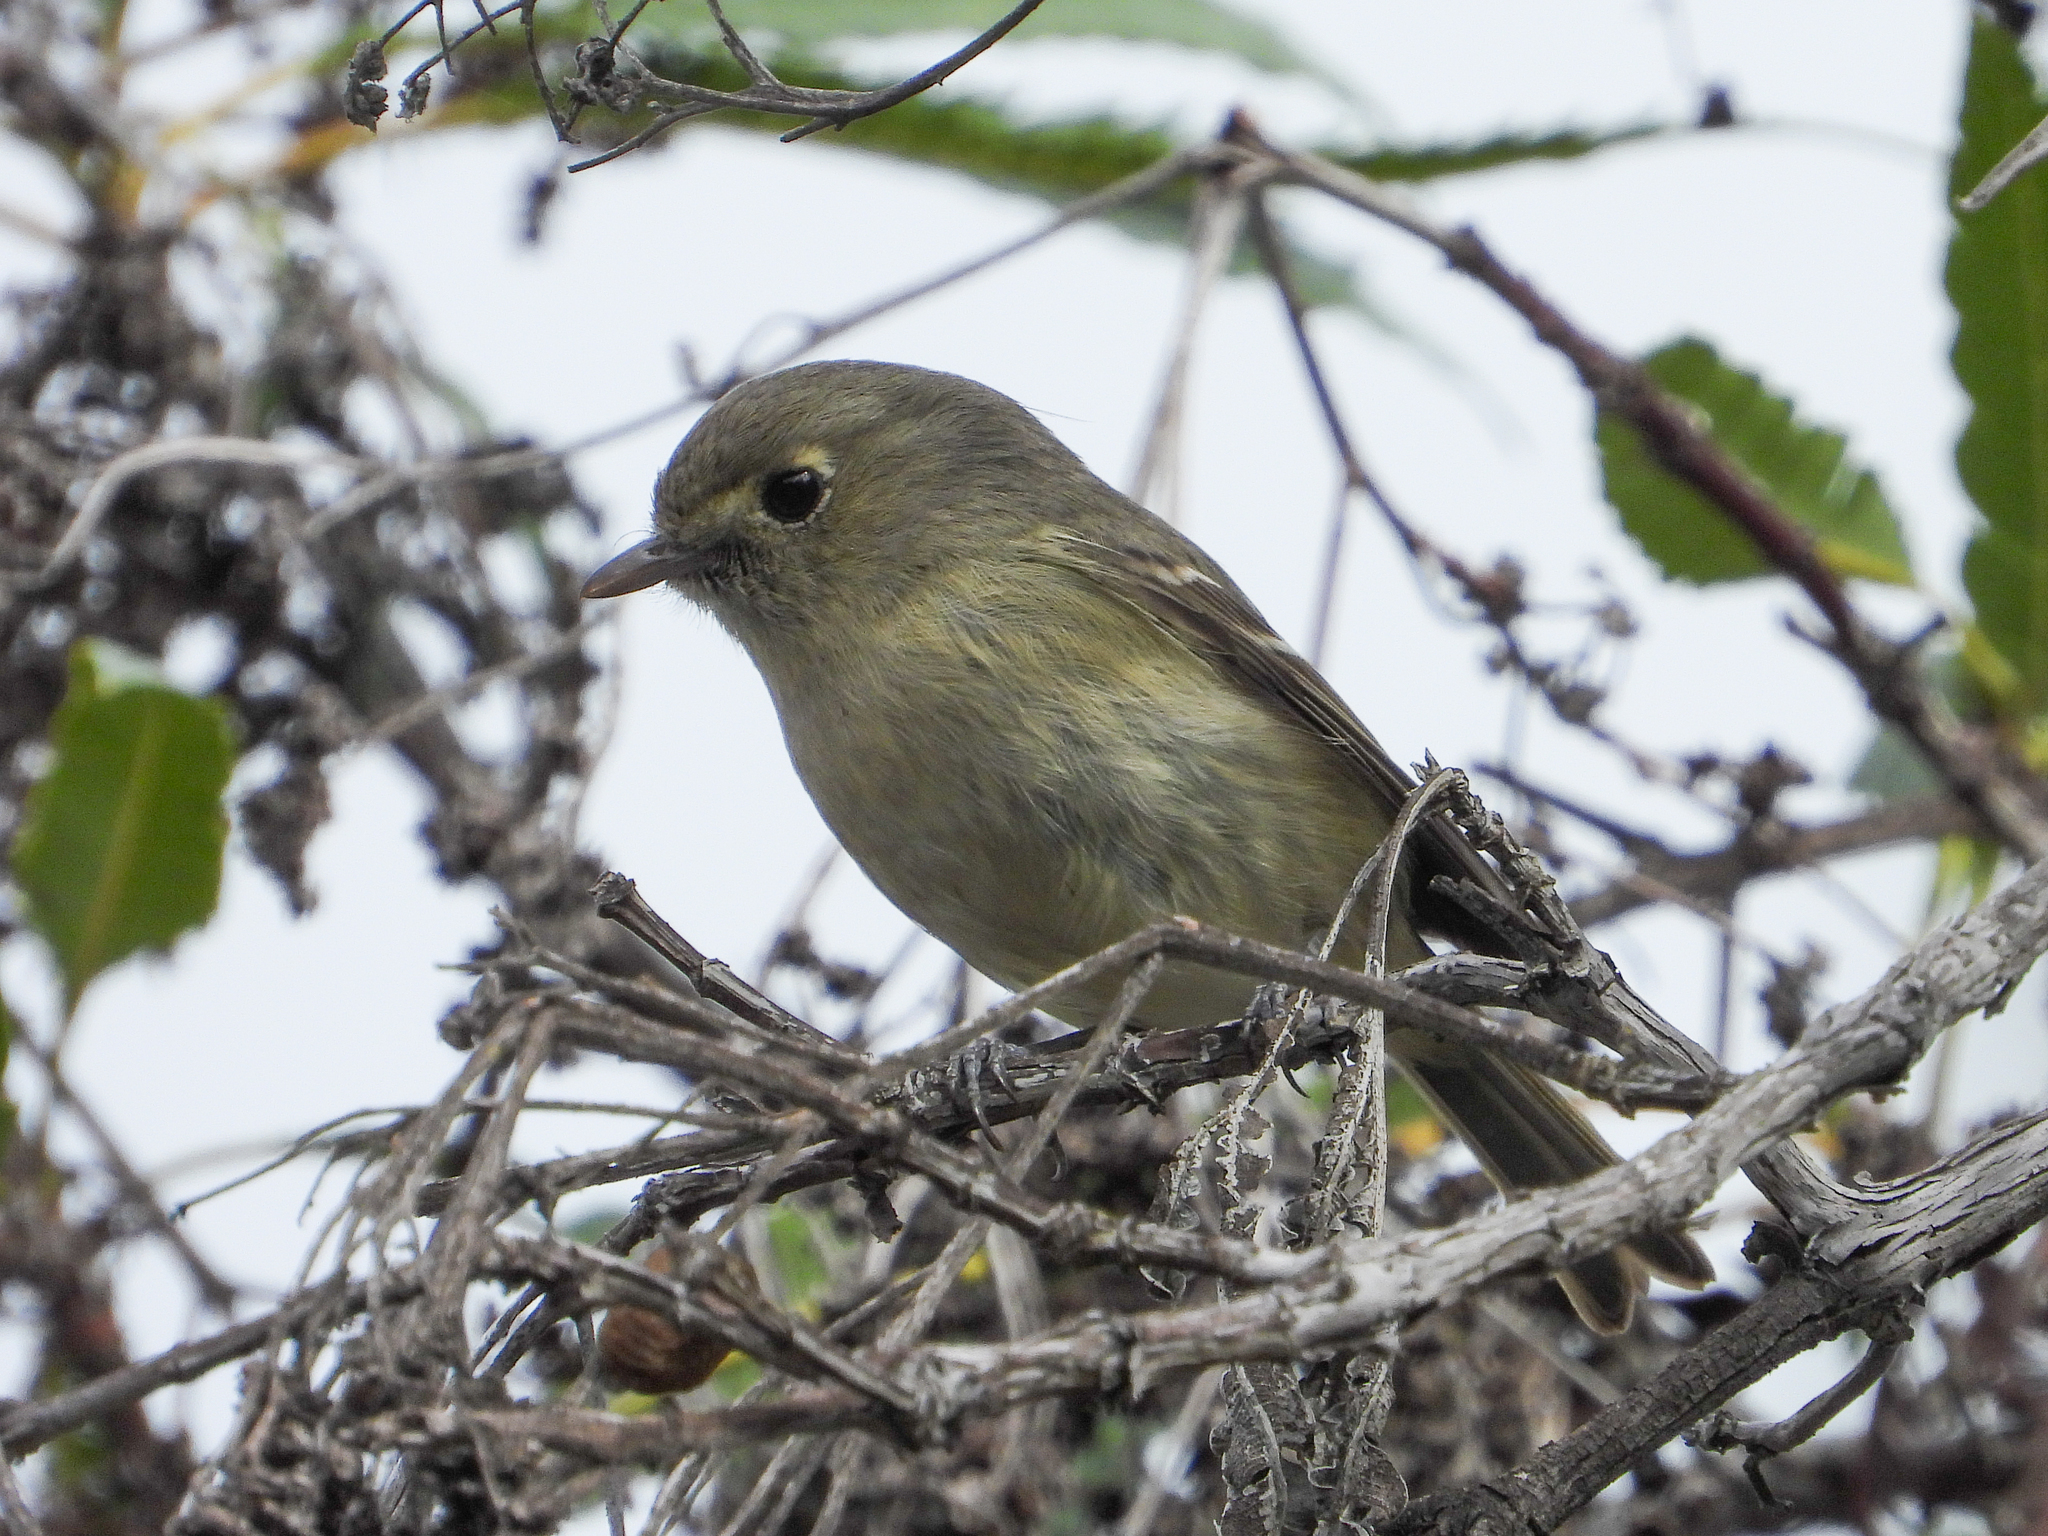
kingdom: Animalia
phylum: Chordata
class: Aves
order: Passeriformes
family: Vireonidae
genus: Vireo
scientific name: Vireo huttoni
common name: Hutton's vireo
